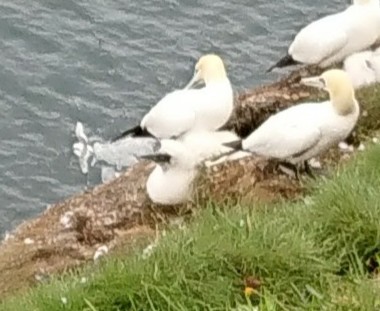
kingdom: Animalia
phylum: Chordata
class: Aves
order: Suliformes
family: Sulidae
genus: Morus
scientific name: Morus bassanus
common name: Northern gannet
